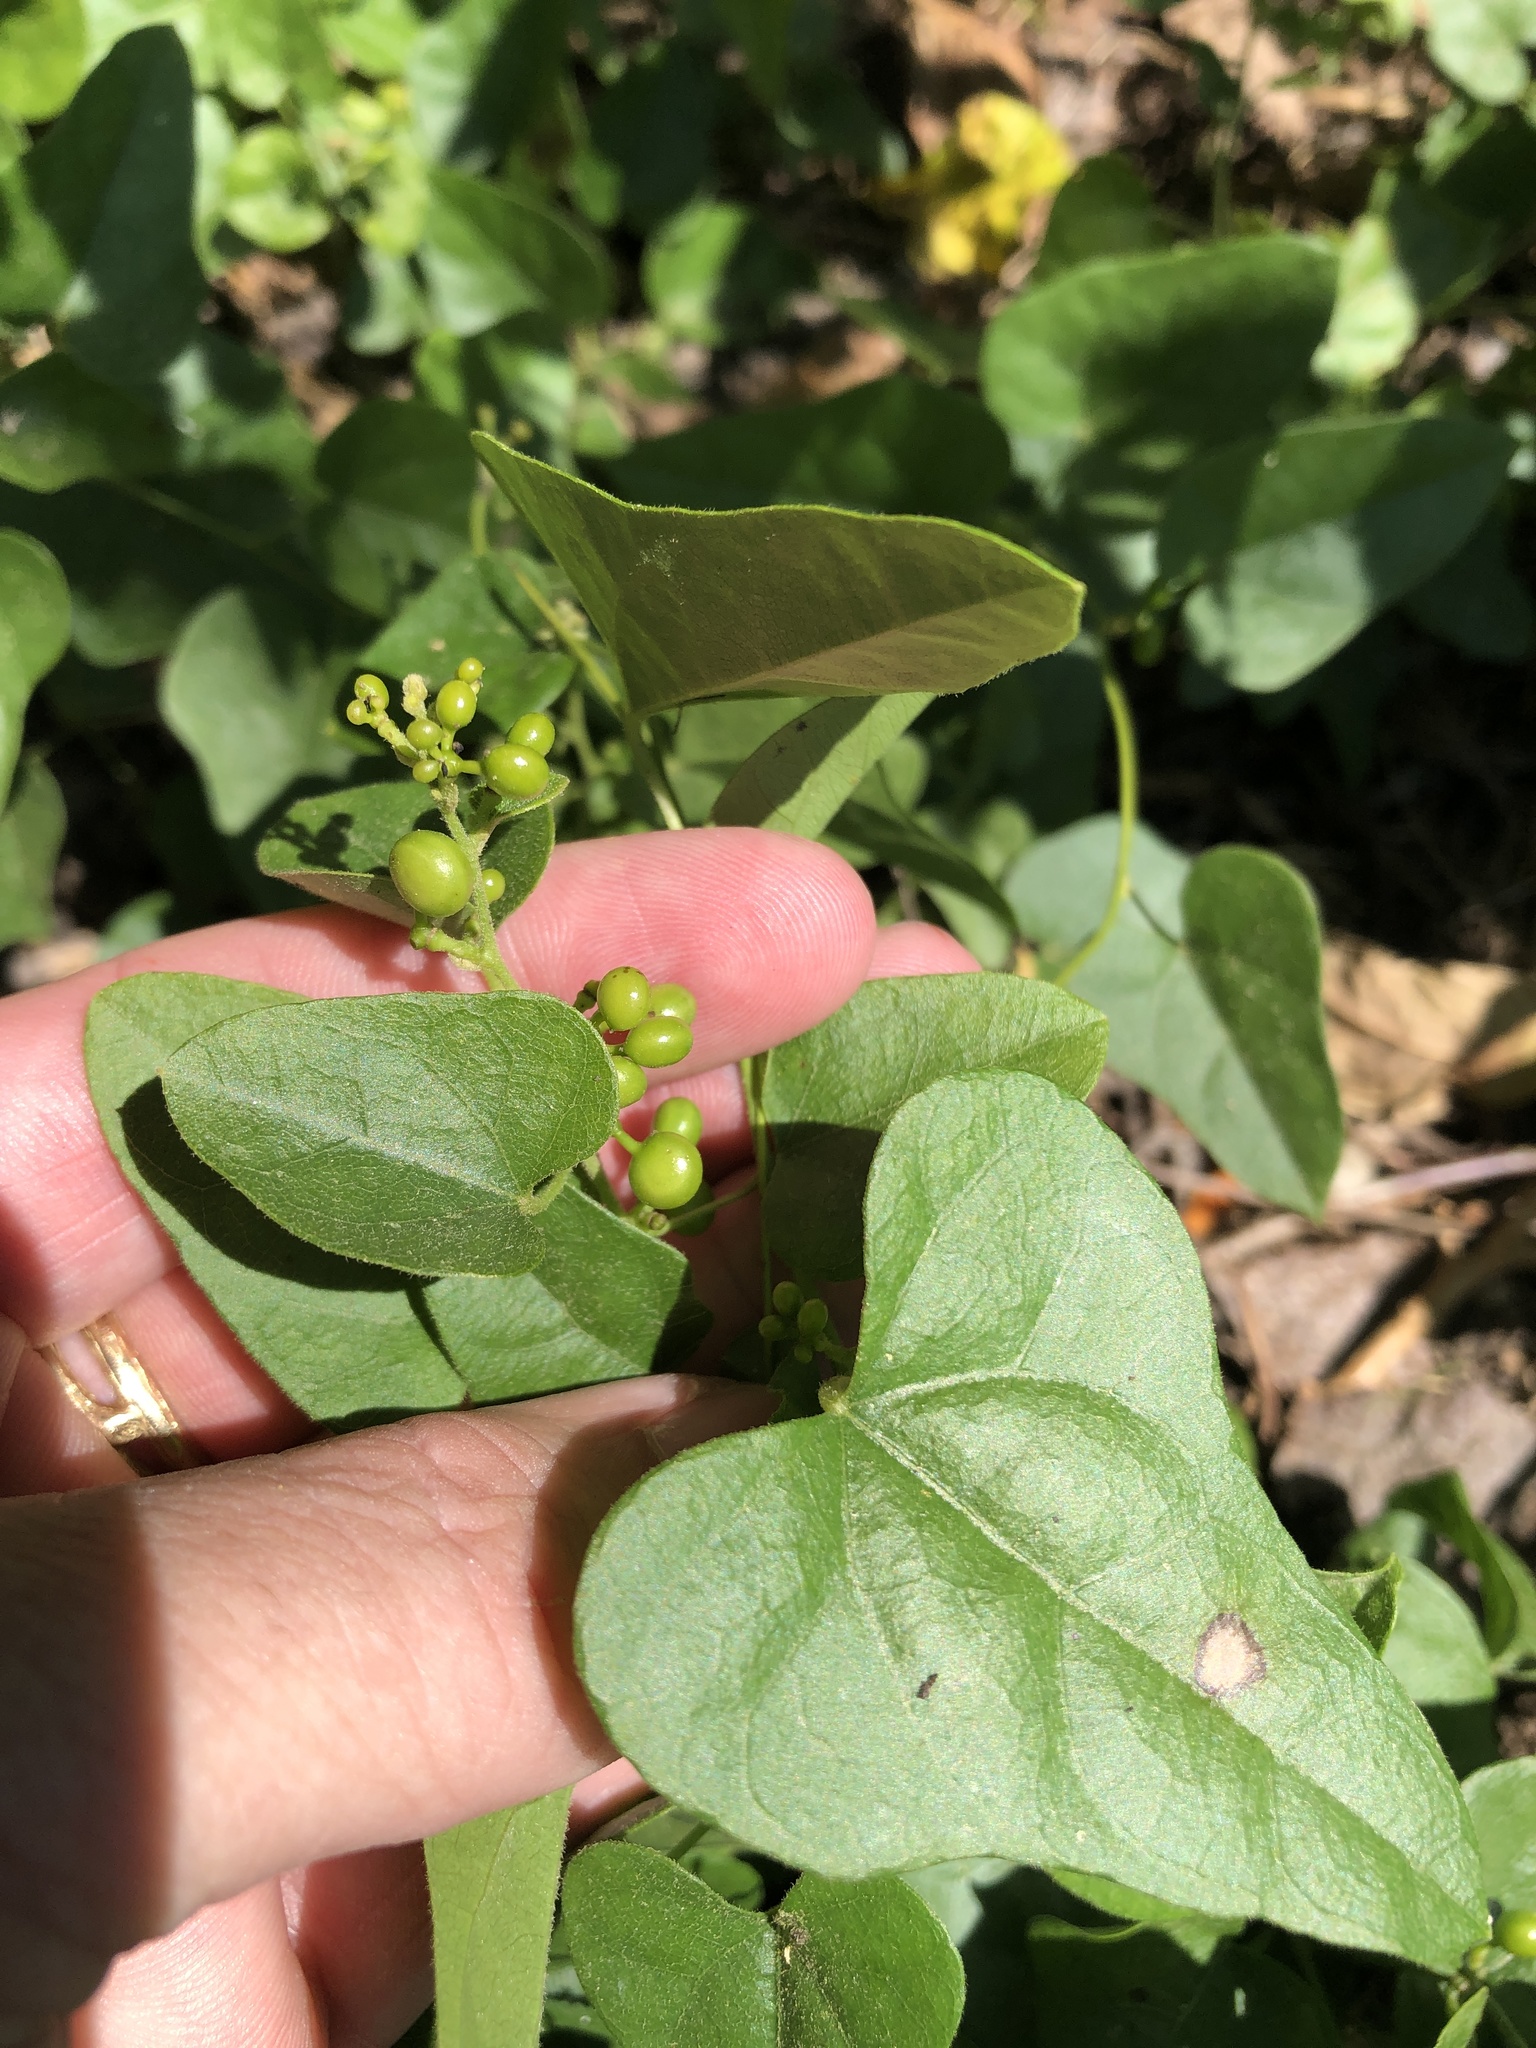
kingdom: Plantae
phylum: Tracheophyta
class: Magnoliopsida
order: Ranunculales
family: Menispermaceae
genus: Cocculus
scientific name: Cocculus carolinus
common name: Carolina moonseed
